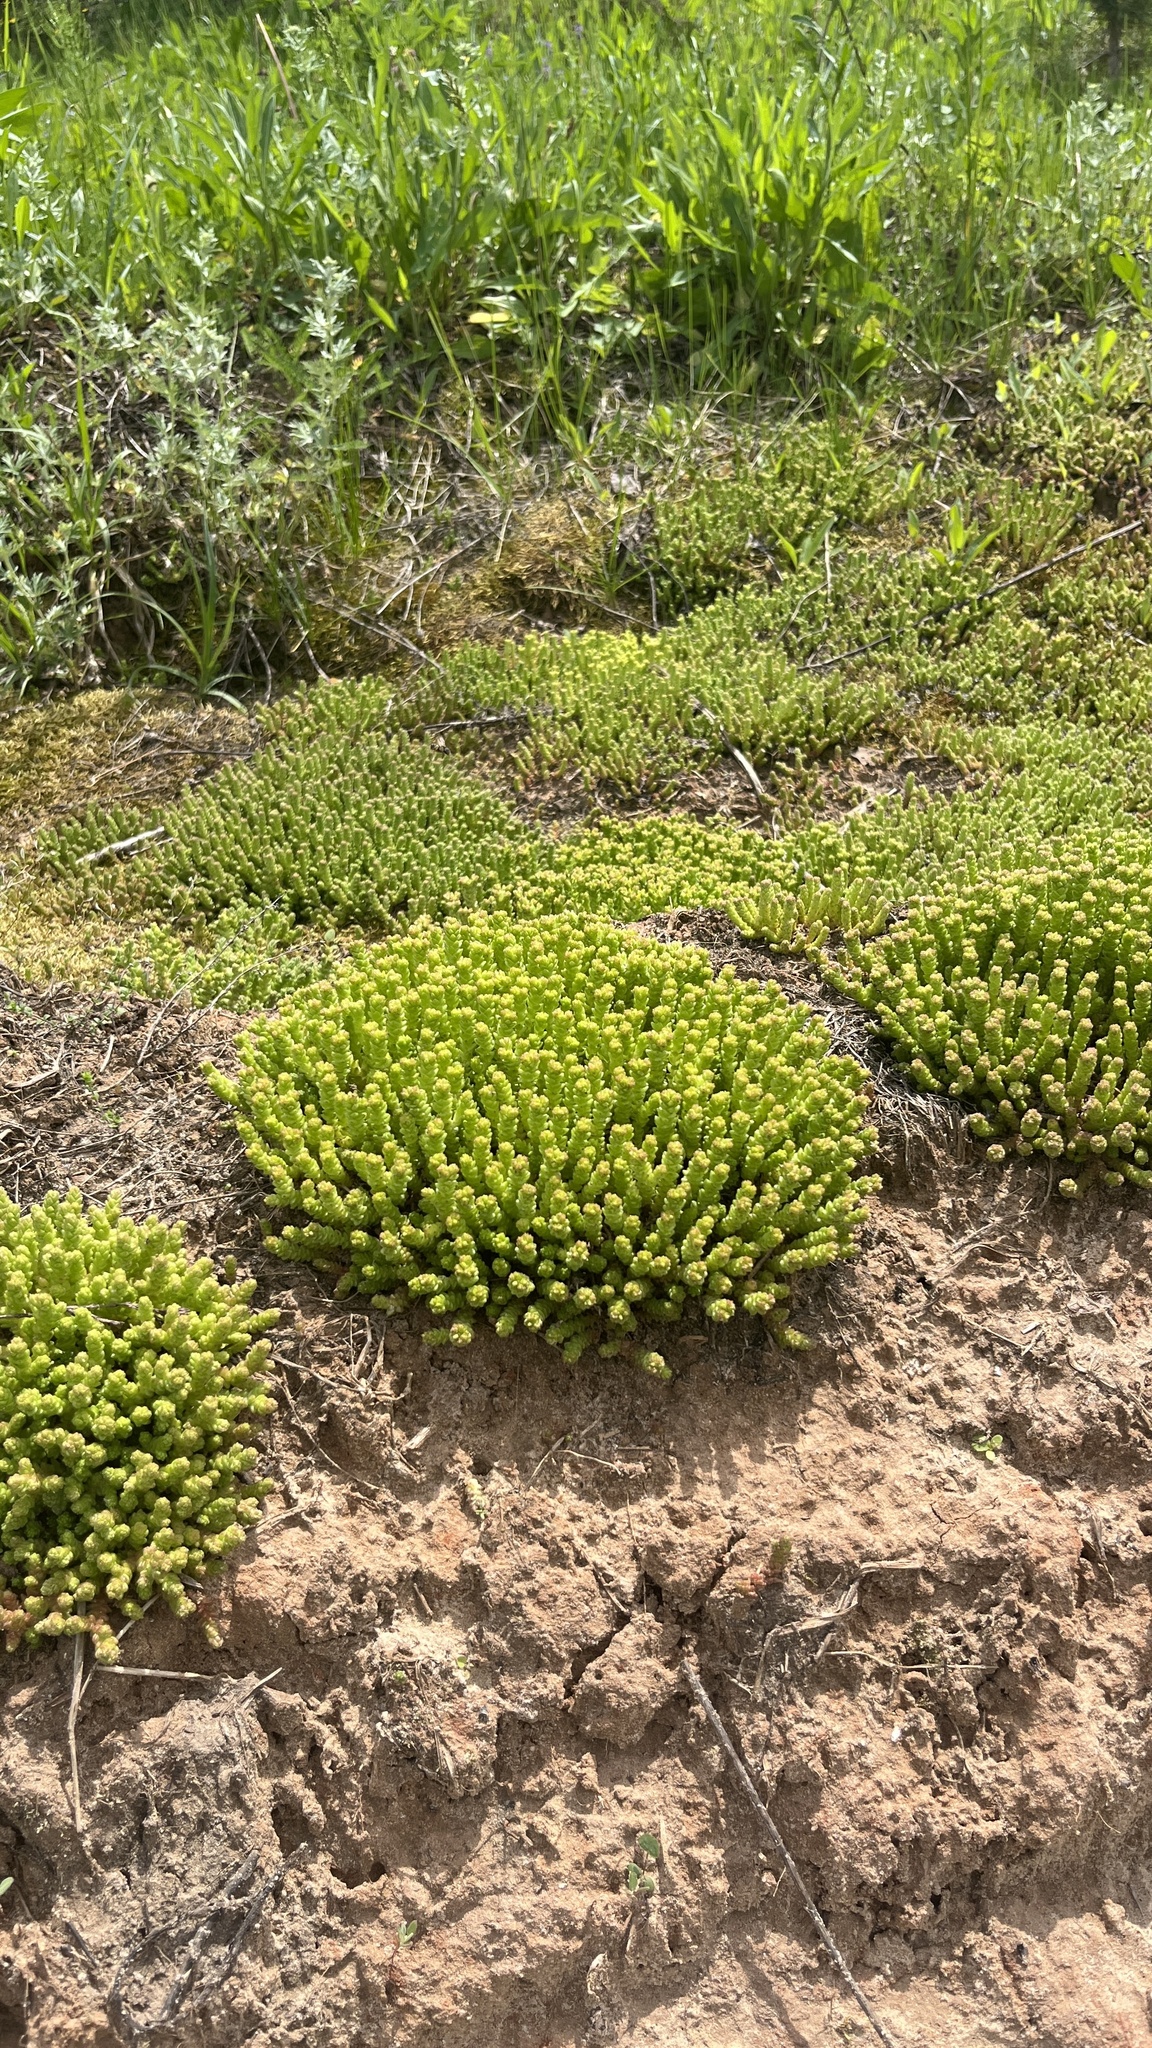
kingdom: Plantae
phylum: Tracheophyta
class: Magnoliopsida
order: Saxifragales
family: Crassulaceae
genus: Sedum
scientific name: Sedum acre
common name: Biting stonecrop
